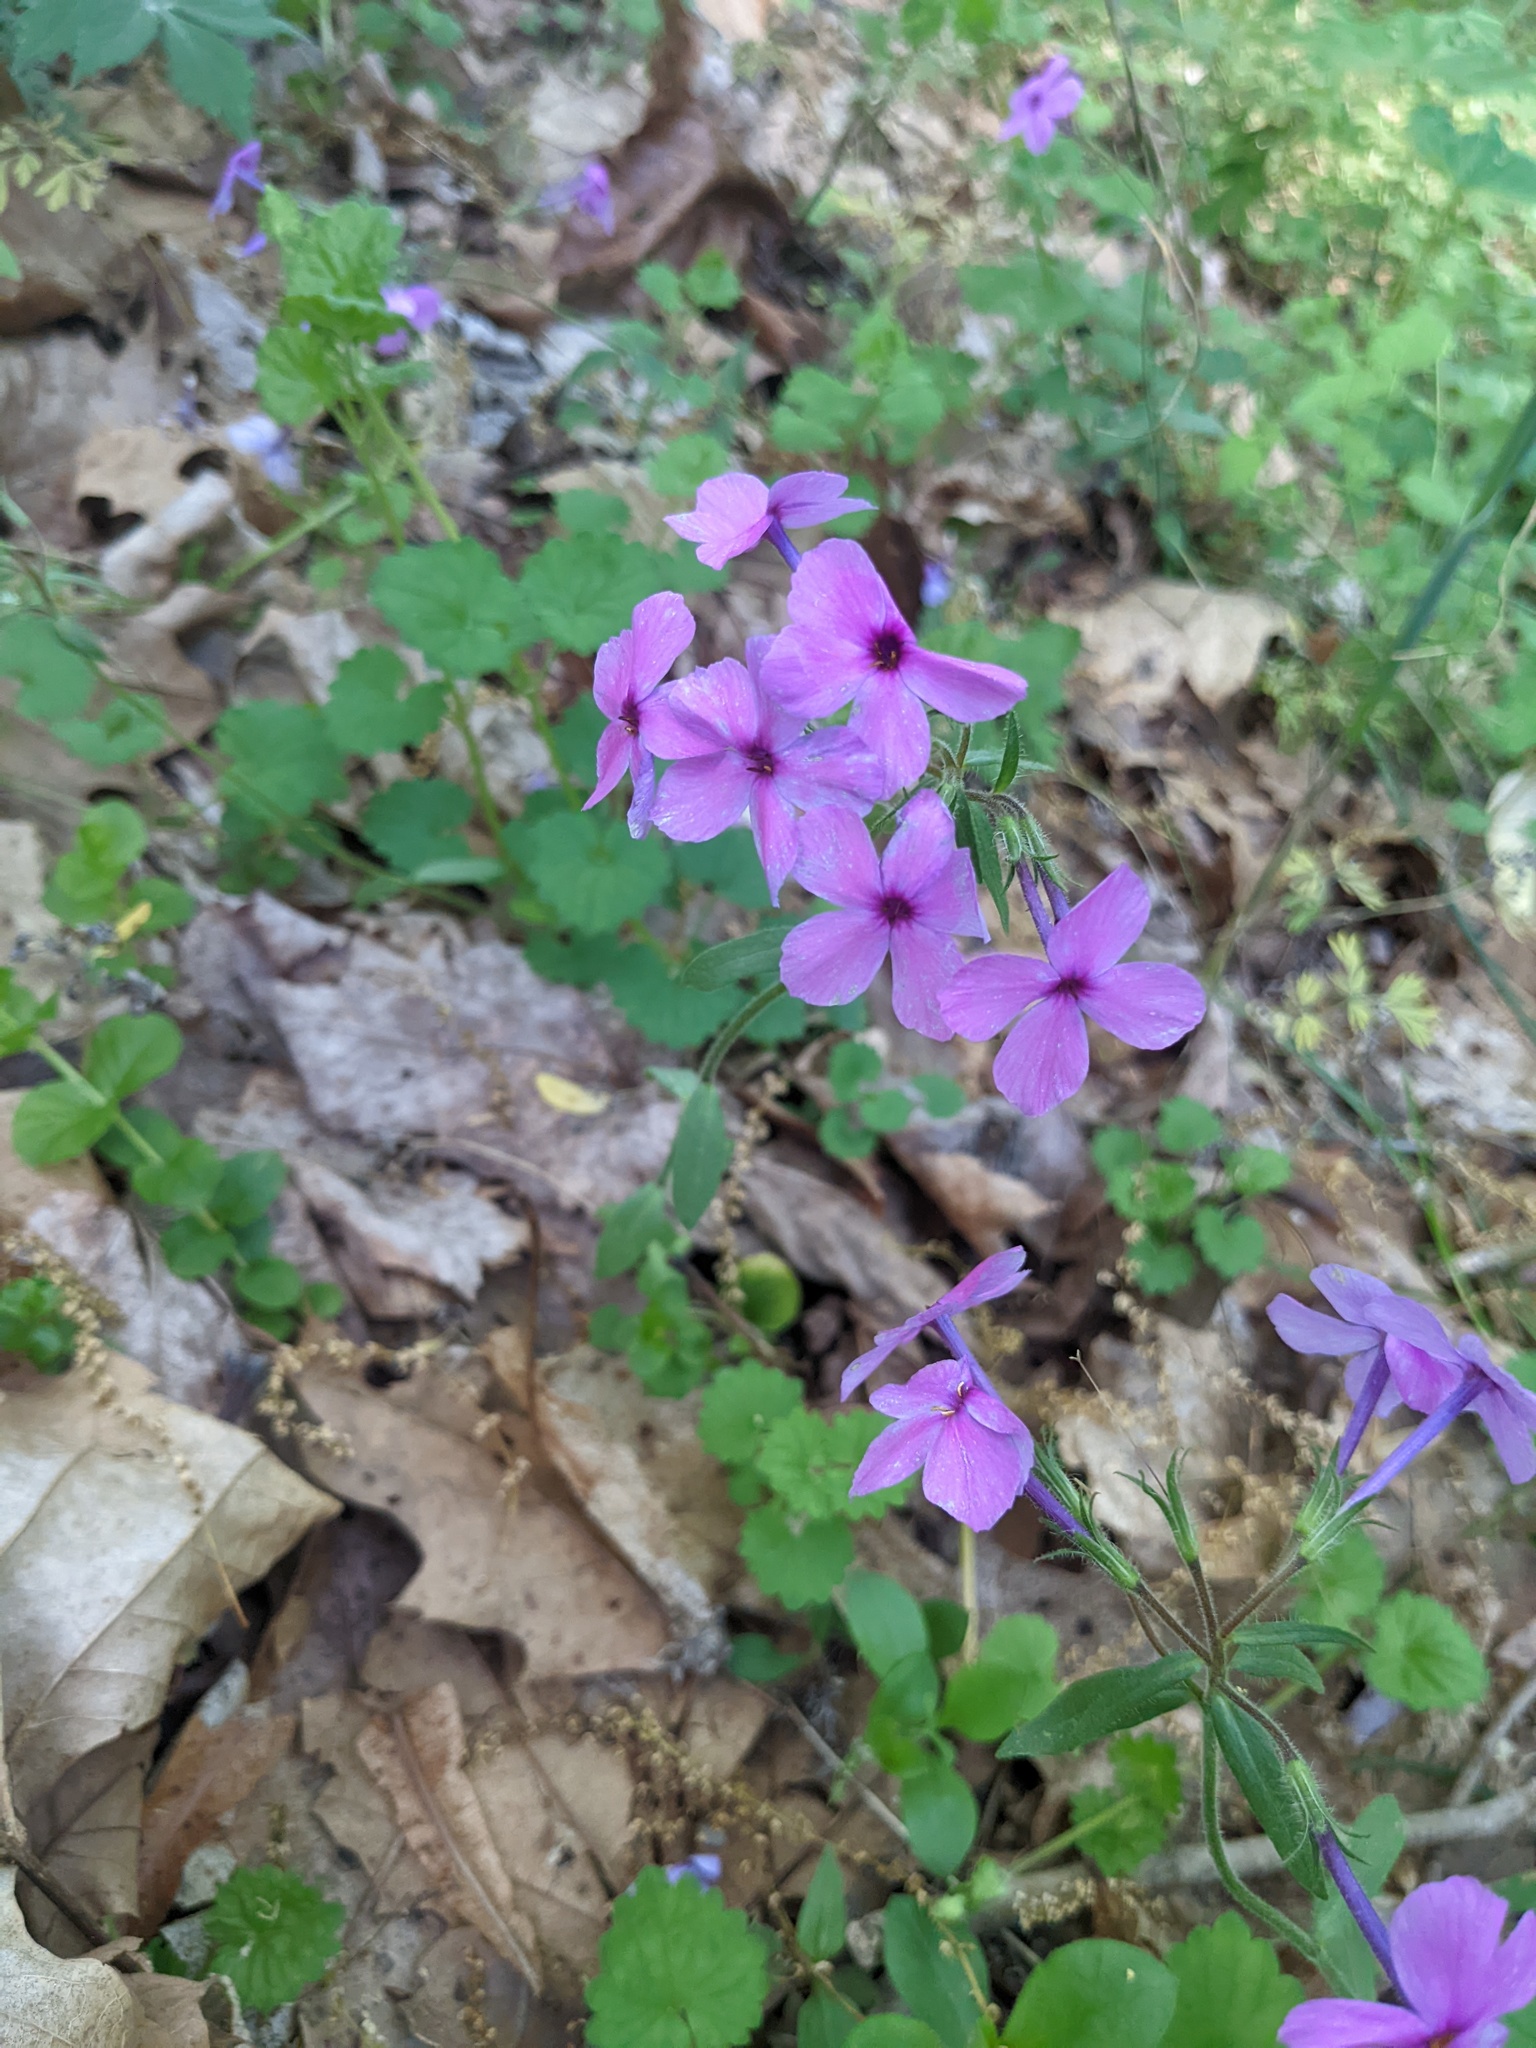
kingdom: Plantae
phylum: Tracheophyta
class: Magnoliopsida
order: Ericales
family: Polemoniaceae
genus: Phlox
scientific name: Phlox stolonifera
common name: Creeping phlox
